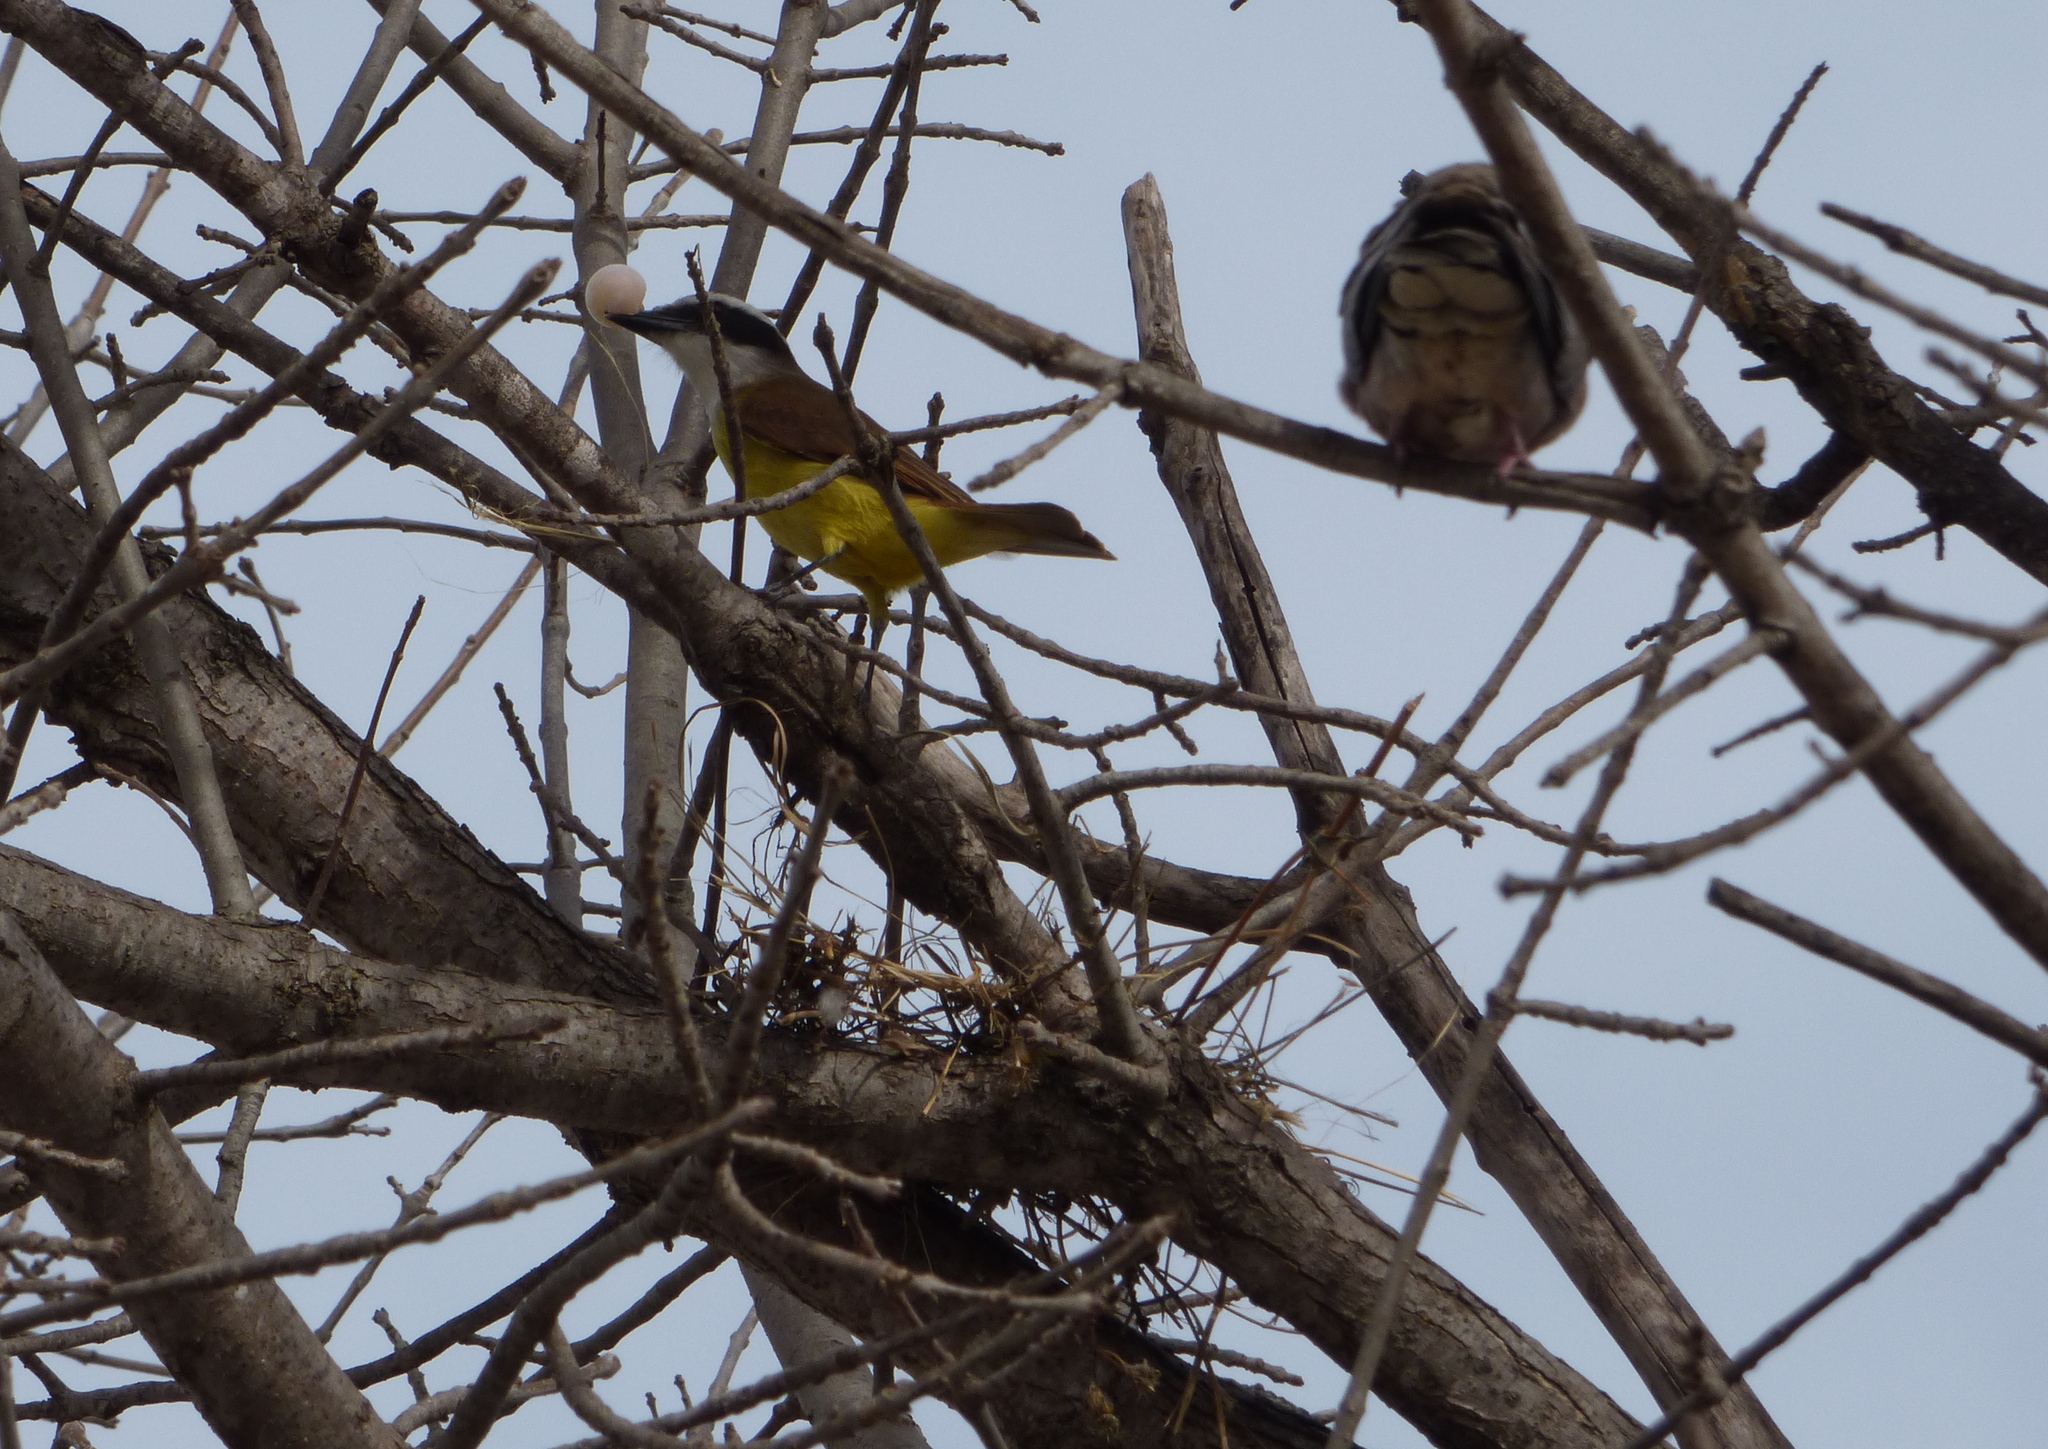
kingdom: Animalia
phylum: Chordata
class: Aves
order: Passeriformes
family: Tyrannidae
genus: Pitangus
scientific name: Pitangus sulphuratus
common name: Great kiskadee
